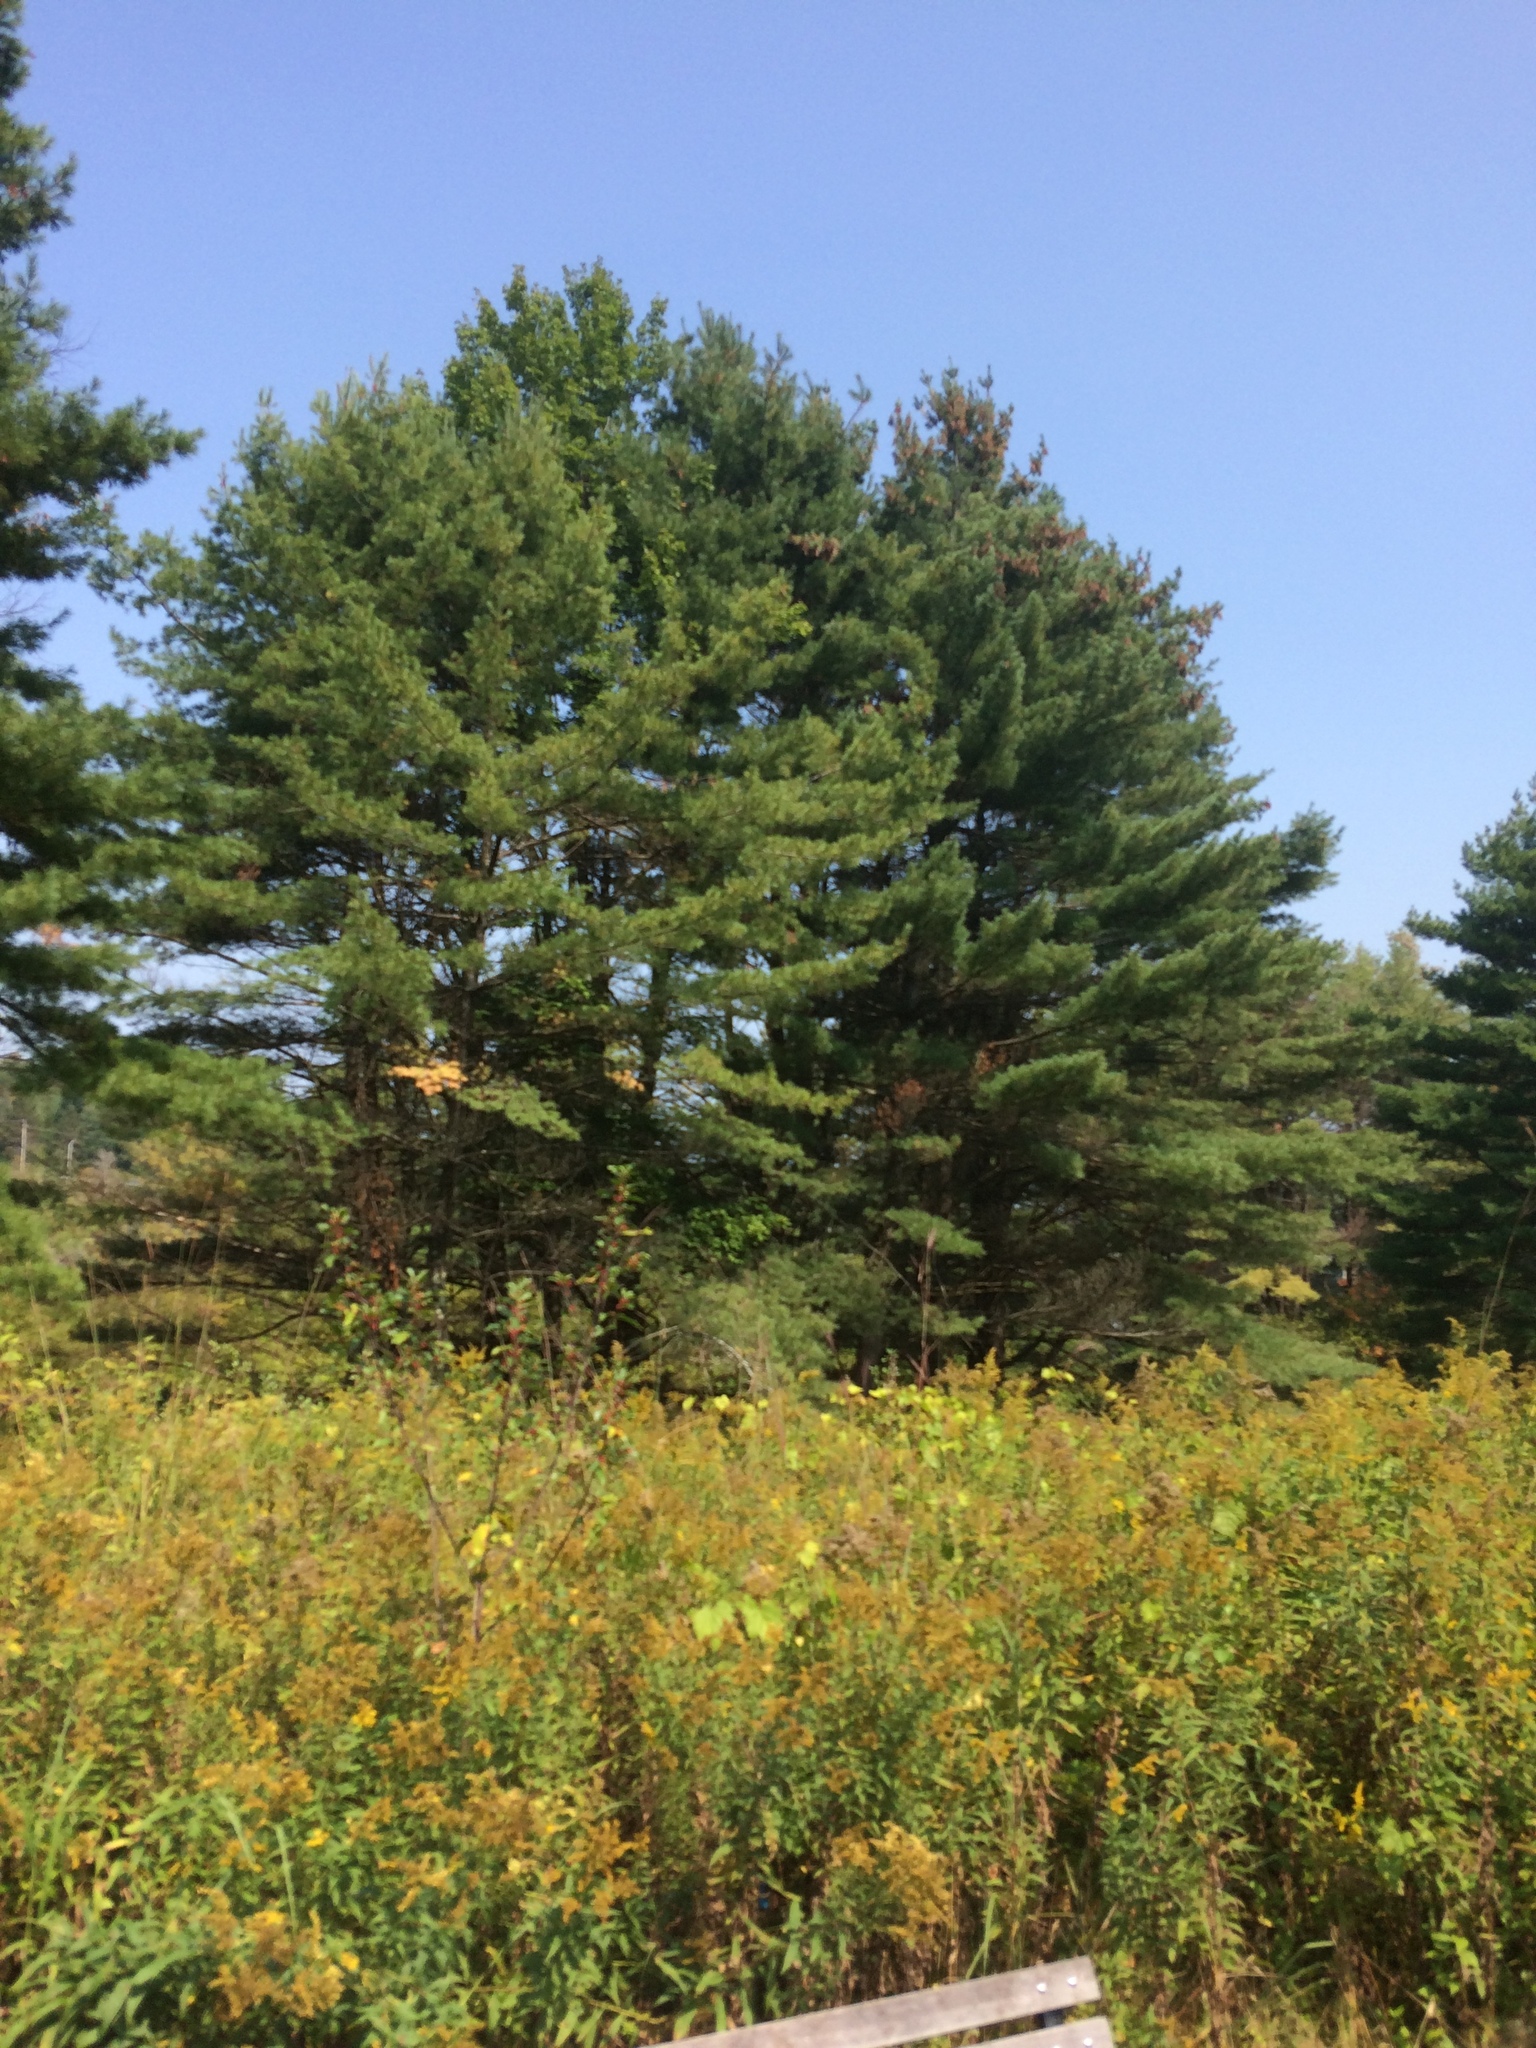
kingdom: Plantae
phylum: Tracheophyta
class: Pinopsida
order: Pinales
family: Pinaceae
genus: Pinus
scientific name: Pinus strobus
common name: Weymouth pine
